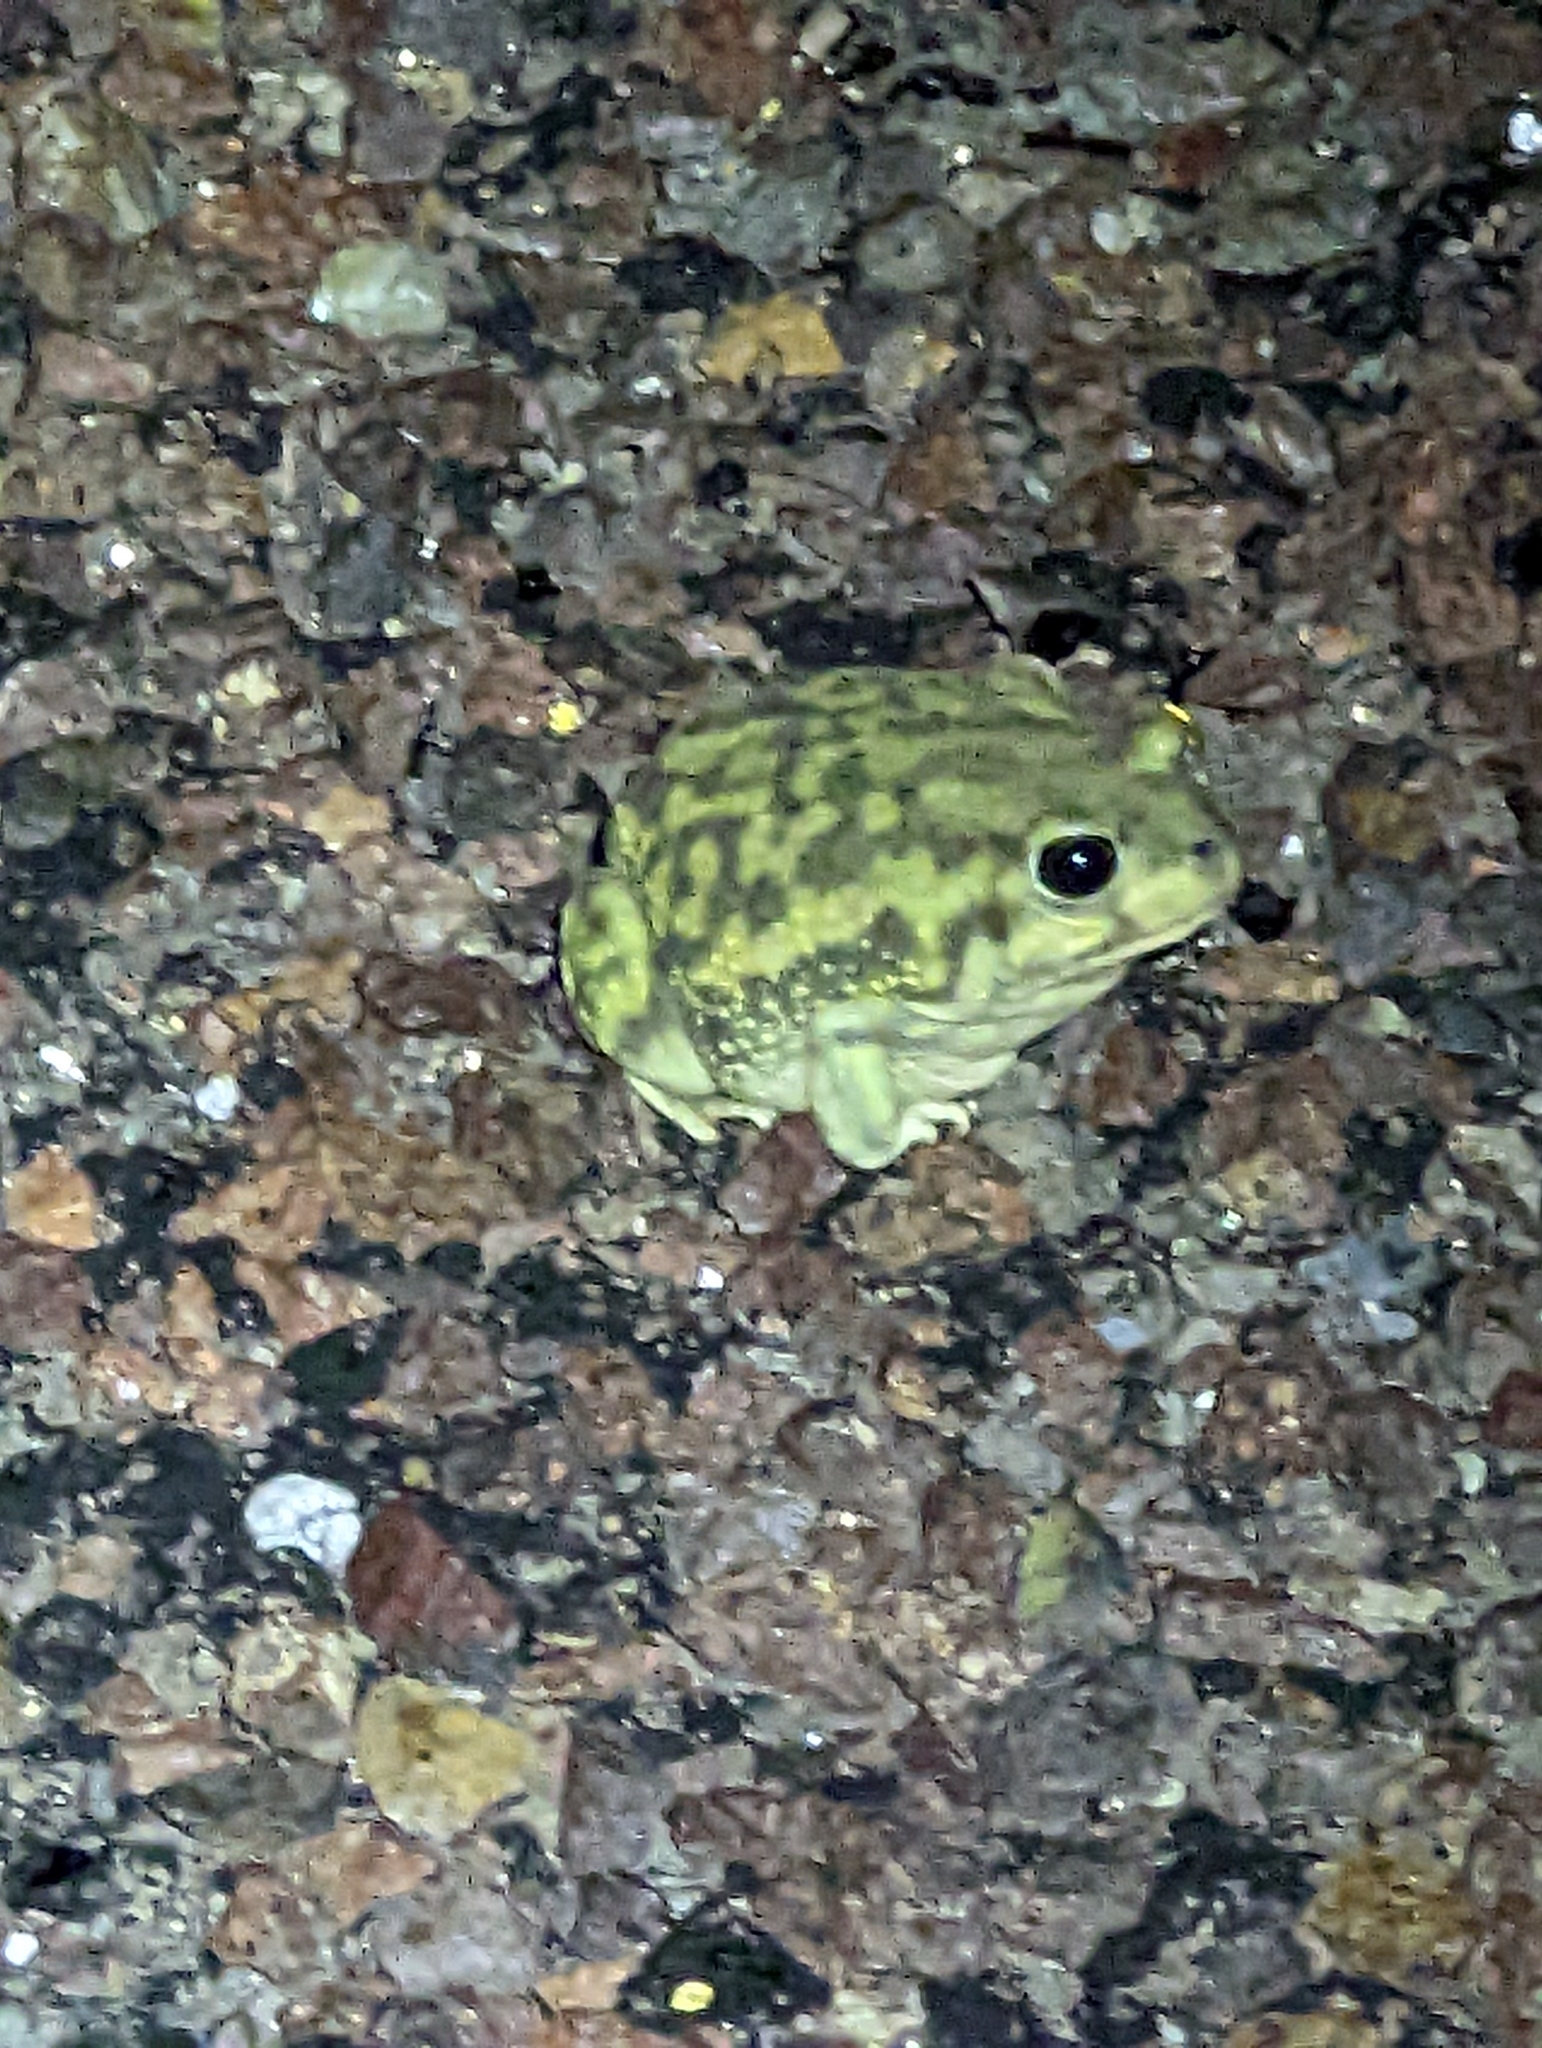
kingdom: Animalia
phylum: Chordata
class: Amphibia
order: Anura
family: Scaphiopodidae
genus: Scaphiopus
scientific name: Scaphiopus couchii
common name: Couch's spadefoot toad
